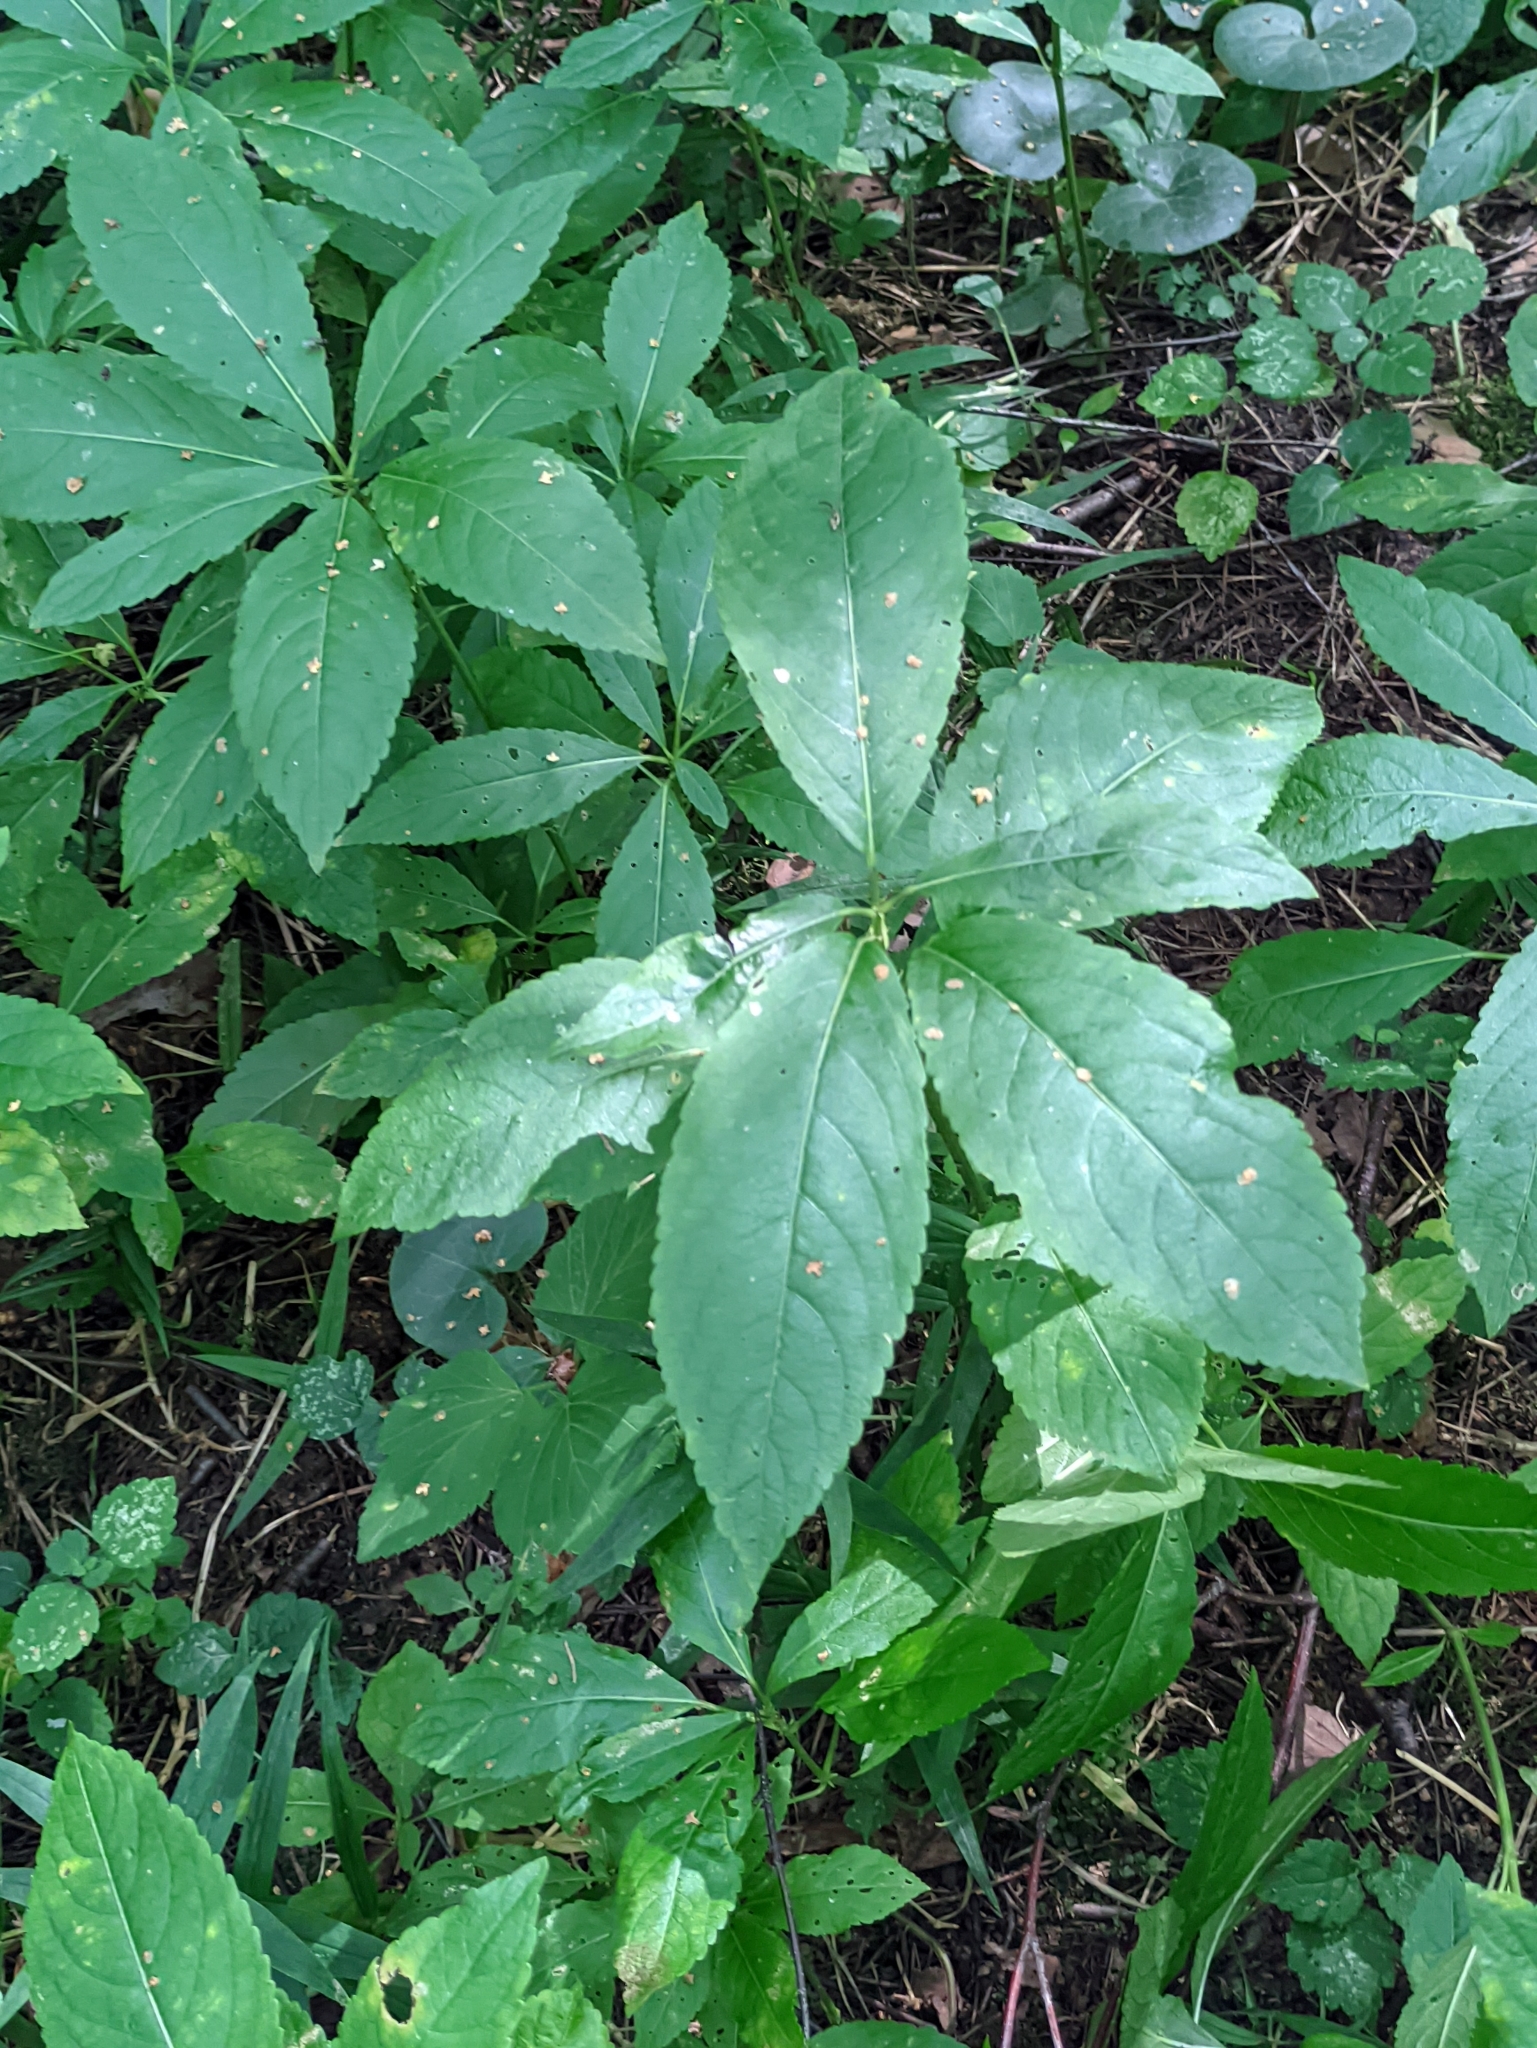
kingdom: Plantae
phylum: Tracheophyta
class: Magnoliopsida
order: Malpighiales
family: Euphorbiaceae
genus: Mercurialis
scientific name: Mercurialis perennis
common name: Dog mercury
